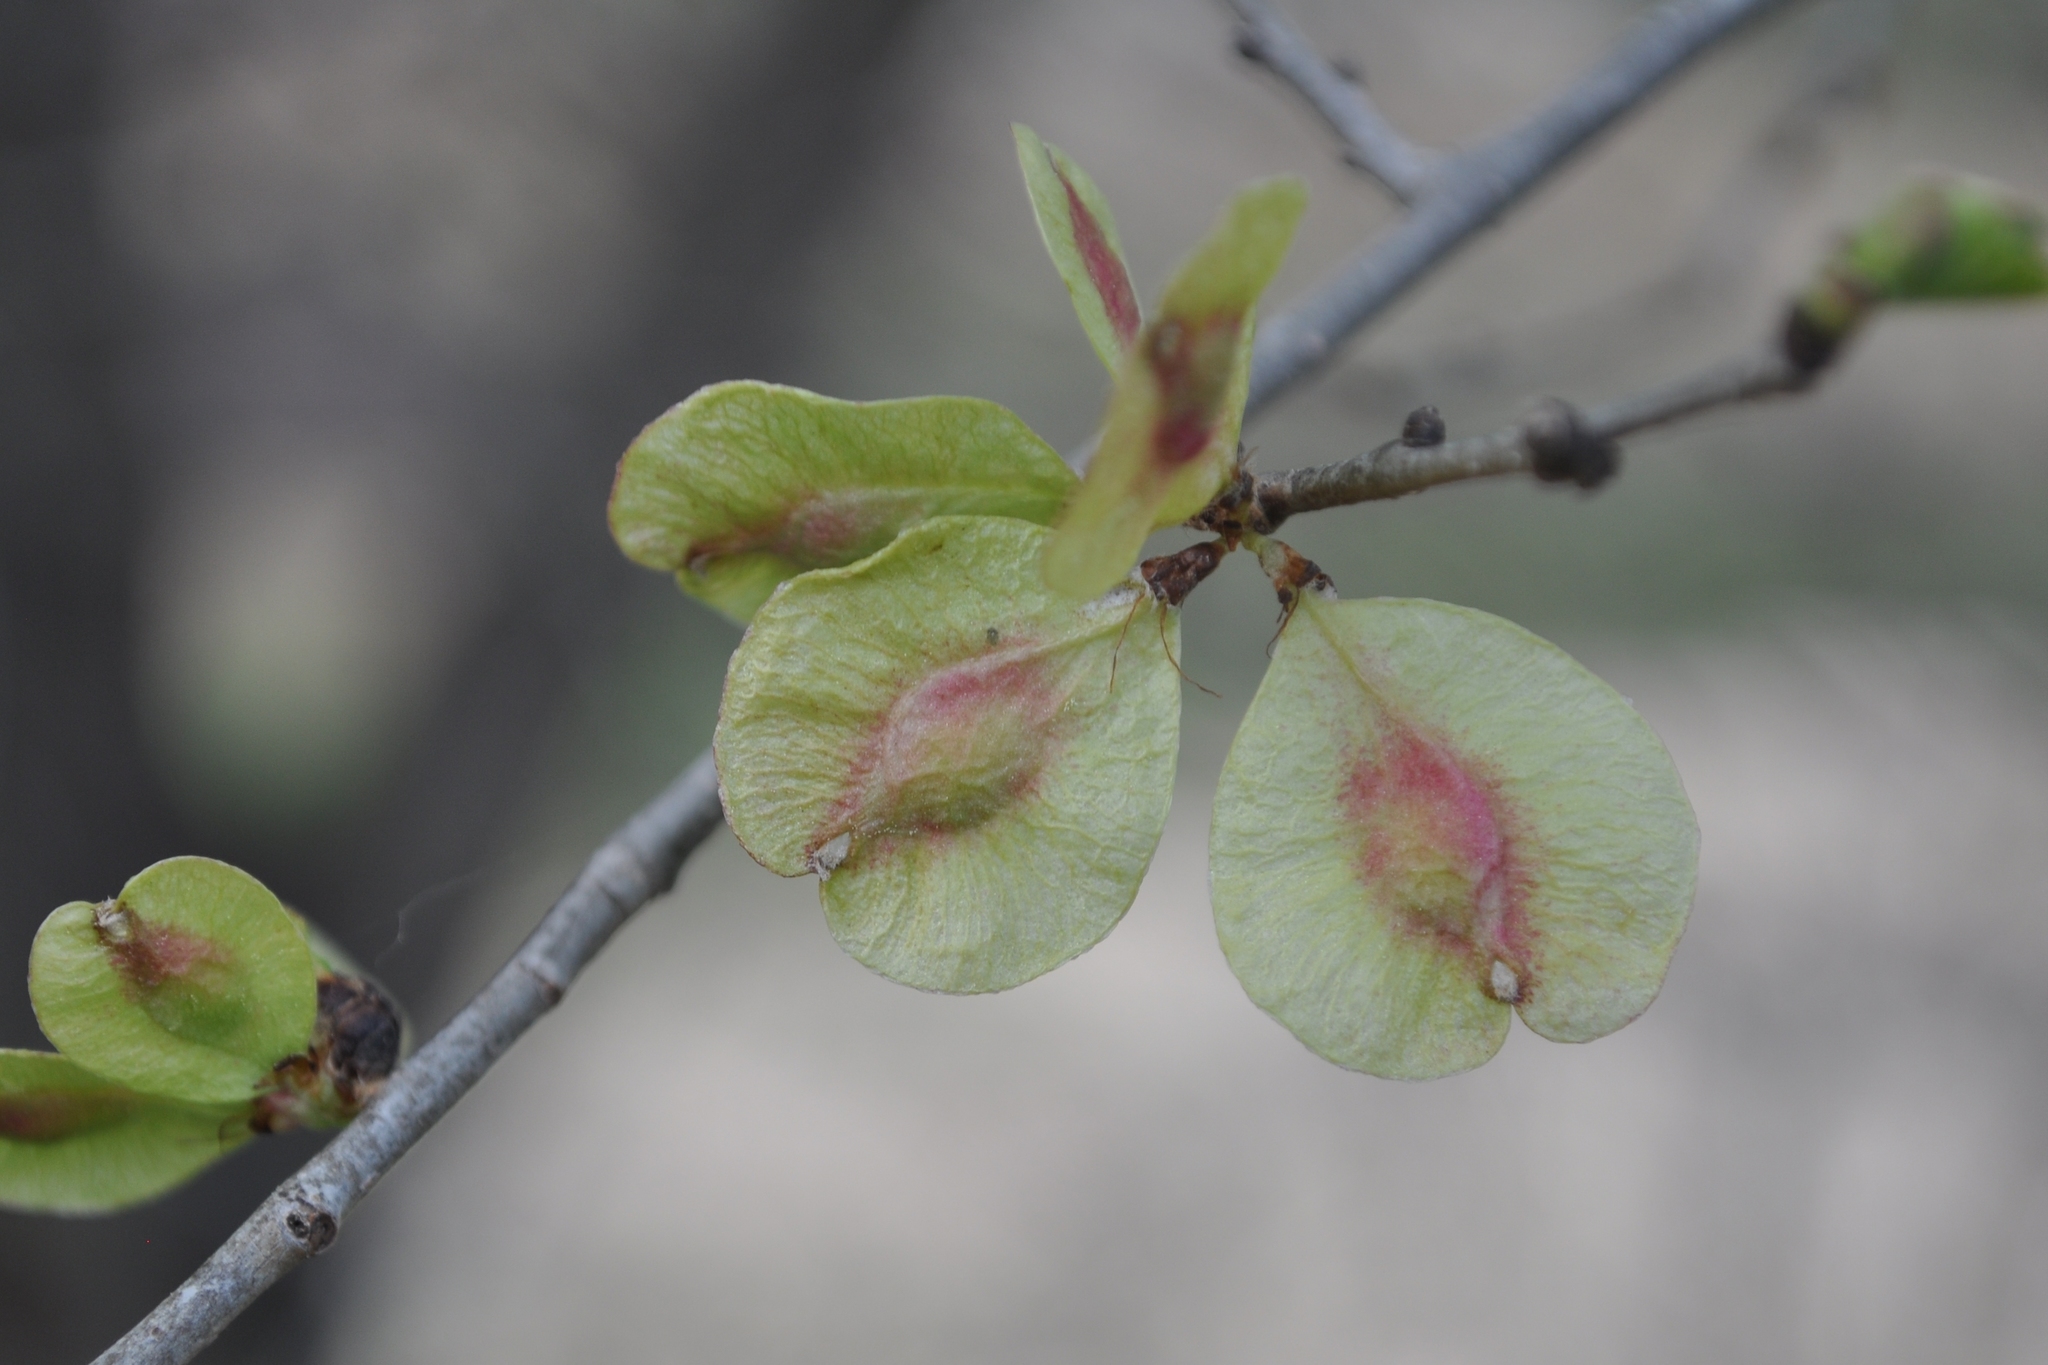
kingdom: Plantae
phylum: Tracheophyta
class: Magnoliopsida
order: Rosales
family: Ulmaceae
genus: Ulmus
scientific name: Ulmus minor
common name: Small-leaved elm
